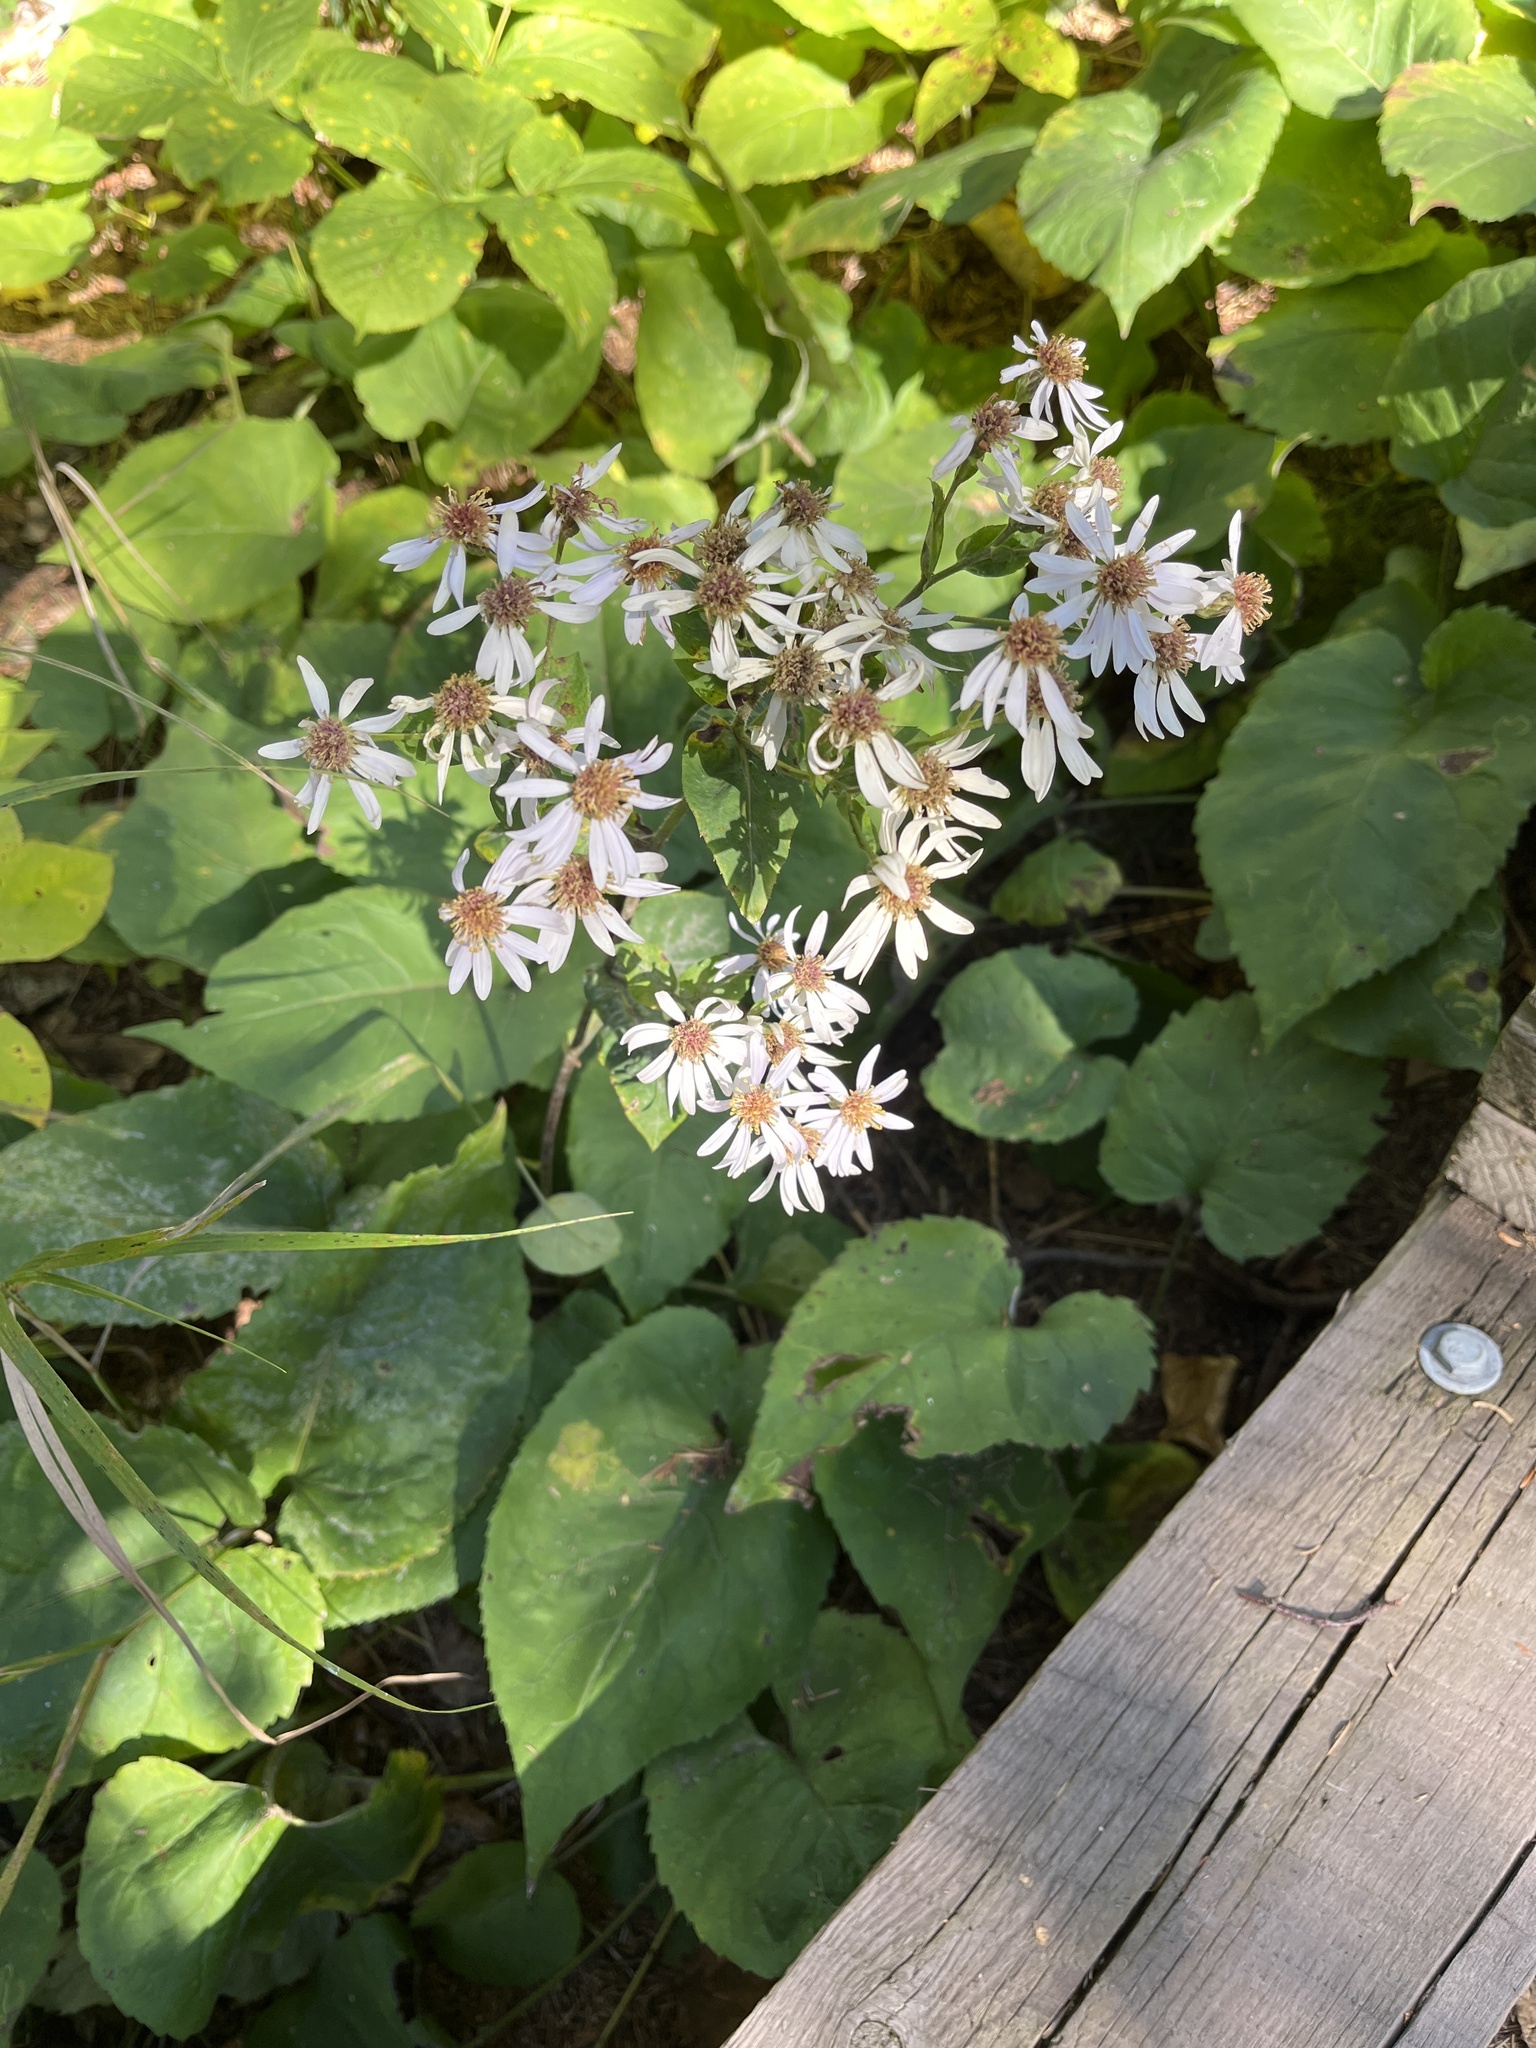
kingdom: Plantae
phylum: Tracheophyta
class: Magnoliopsida
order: Asterales
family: Asteraceae
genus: Eurybia
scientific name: Eurybia macrophylla
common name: Big-leaved aster
